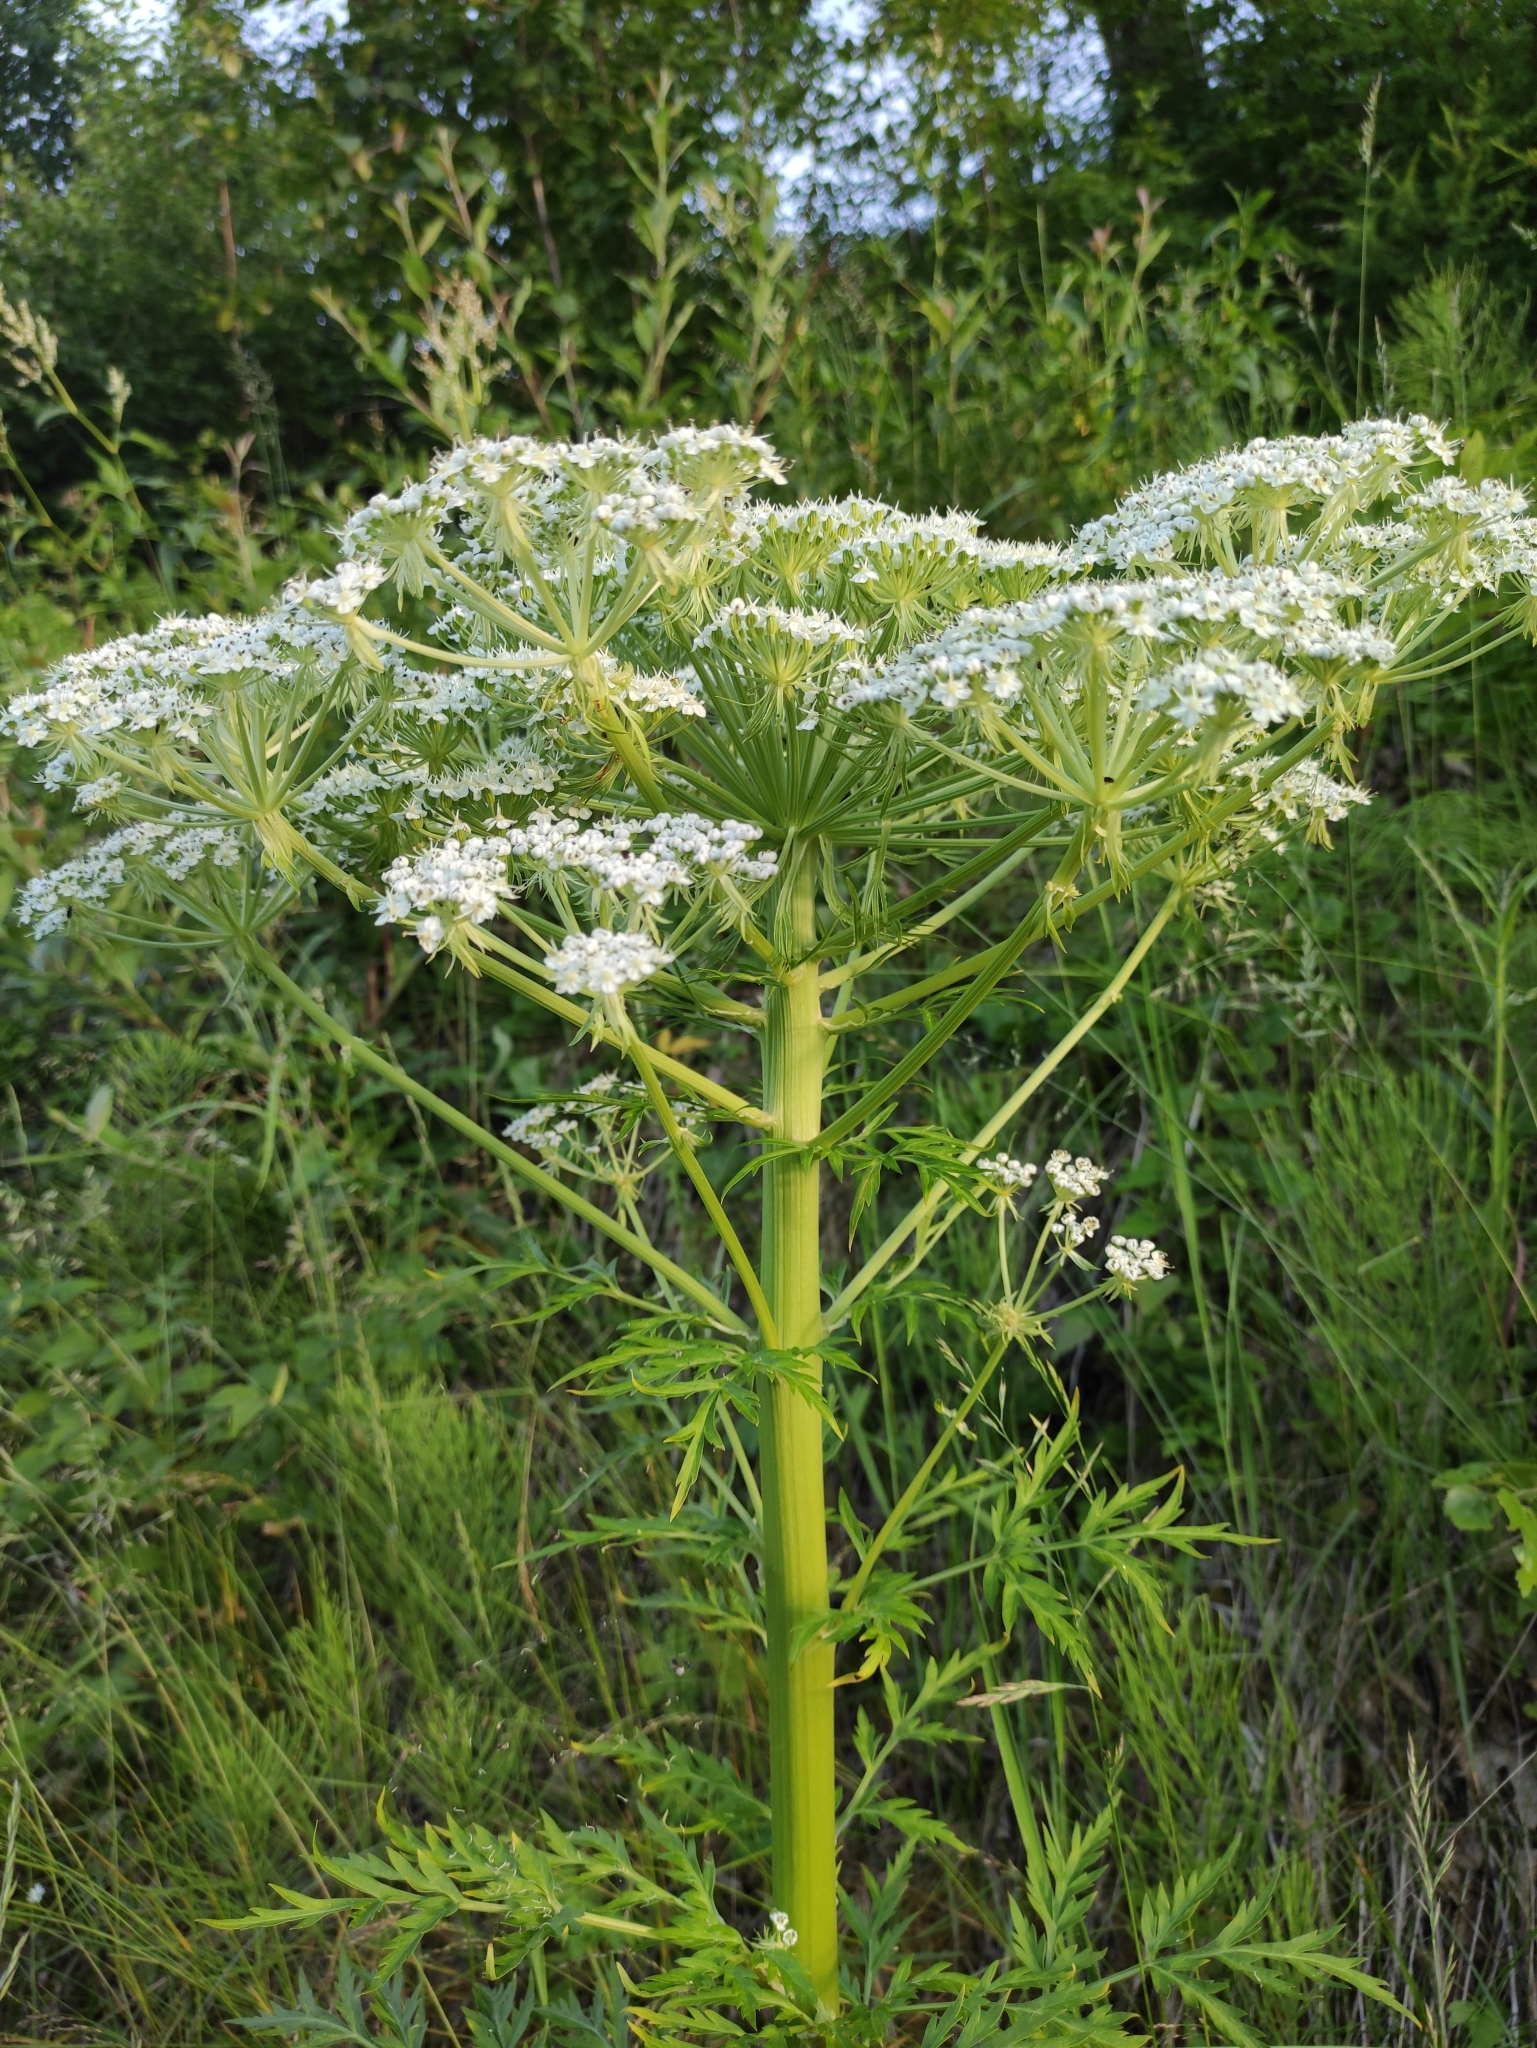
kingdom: Plantae
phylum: Tracheophyta
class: Magnoliopsida
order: Apiales
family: Apiaceae
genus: Pleurospermum
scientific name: Pleurospermum uralense
